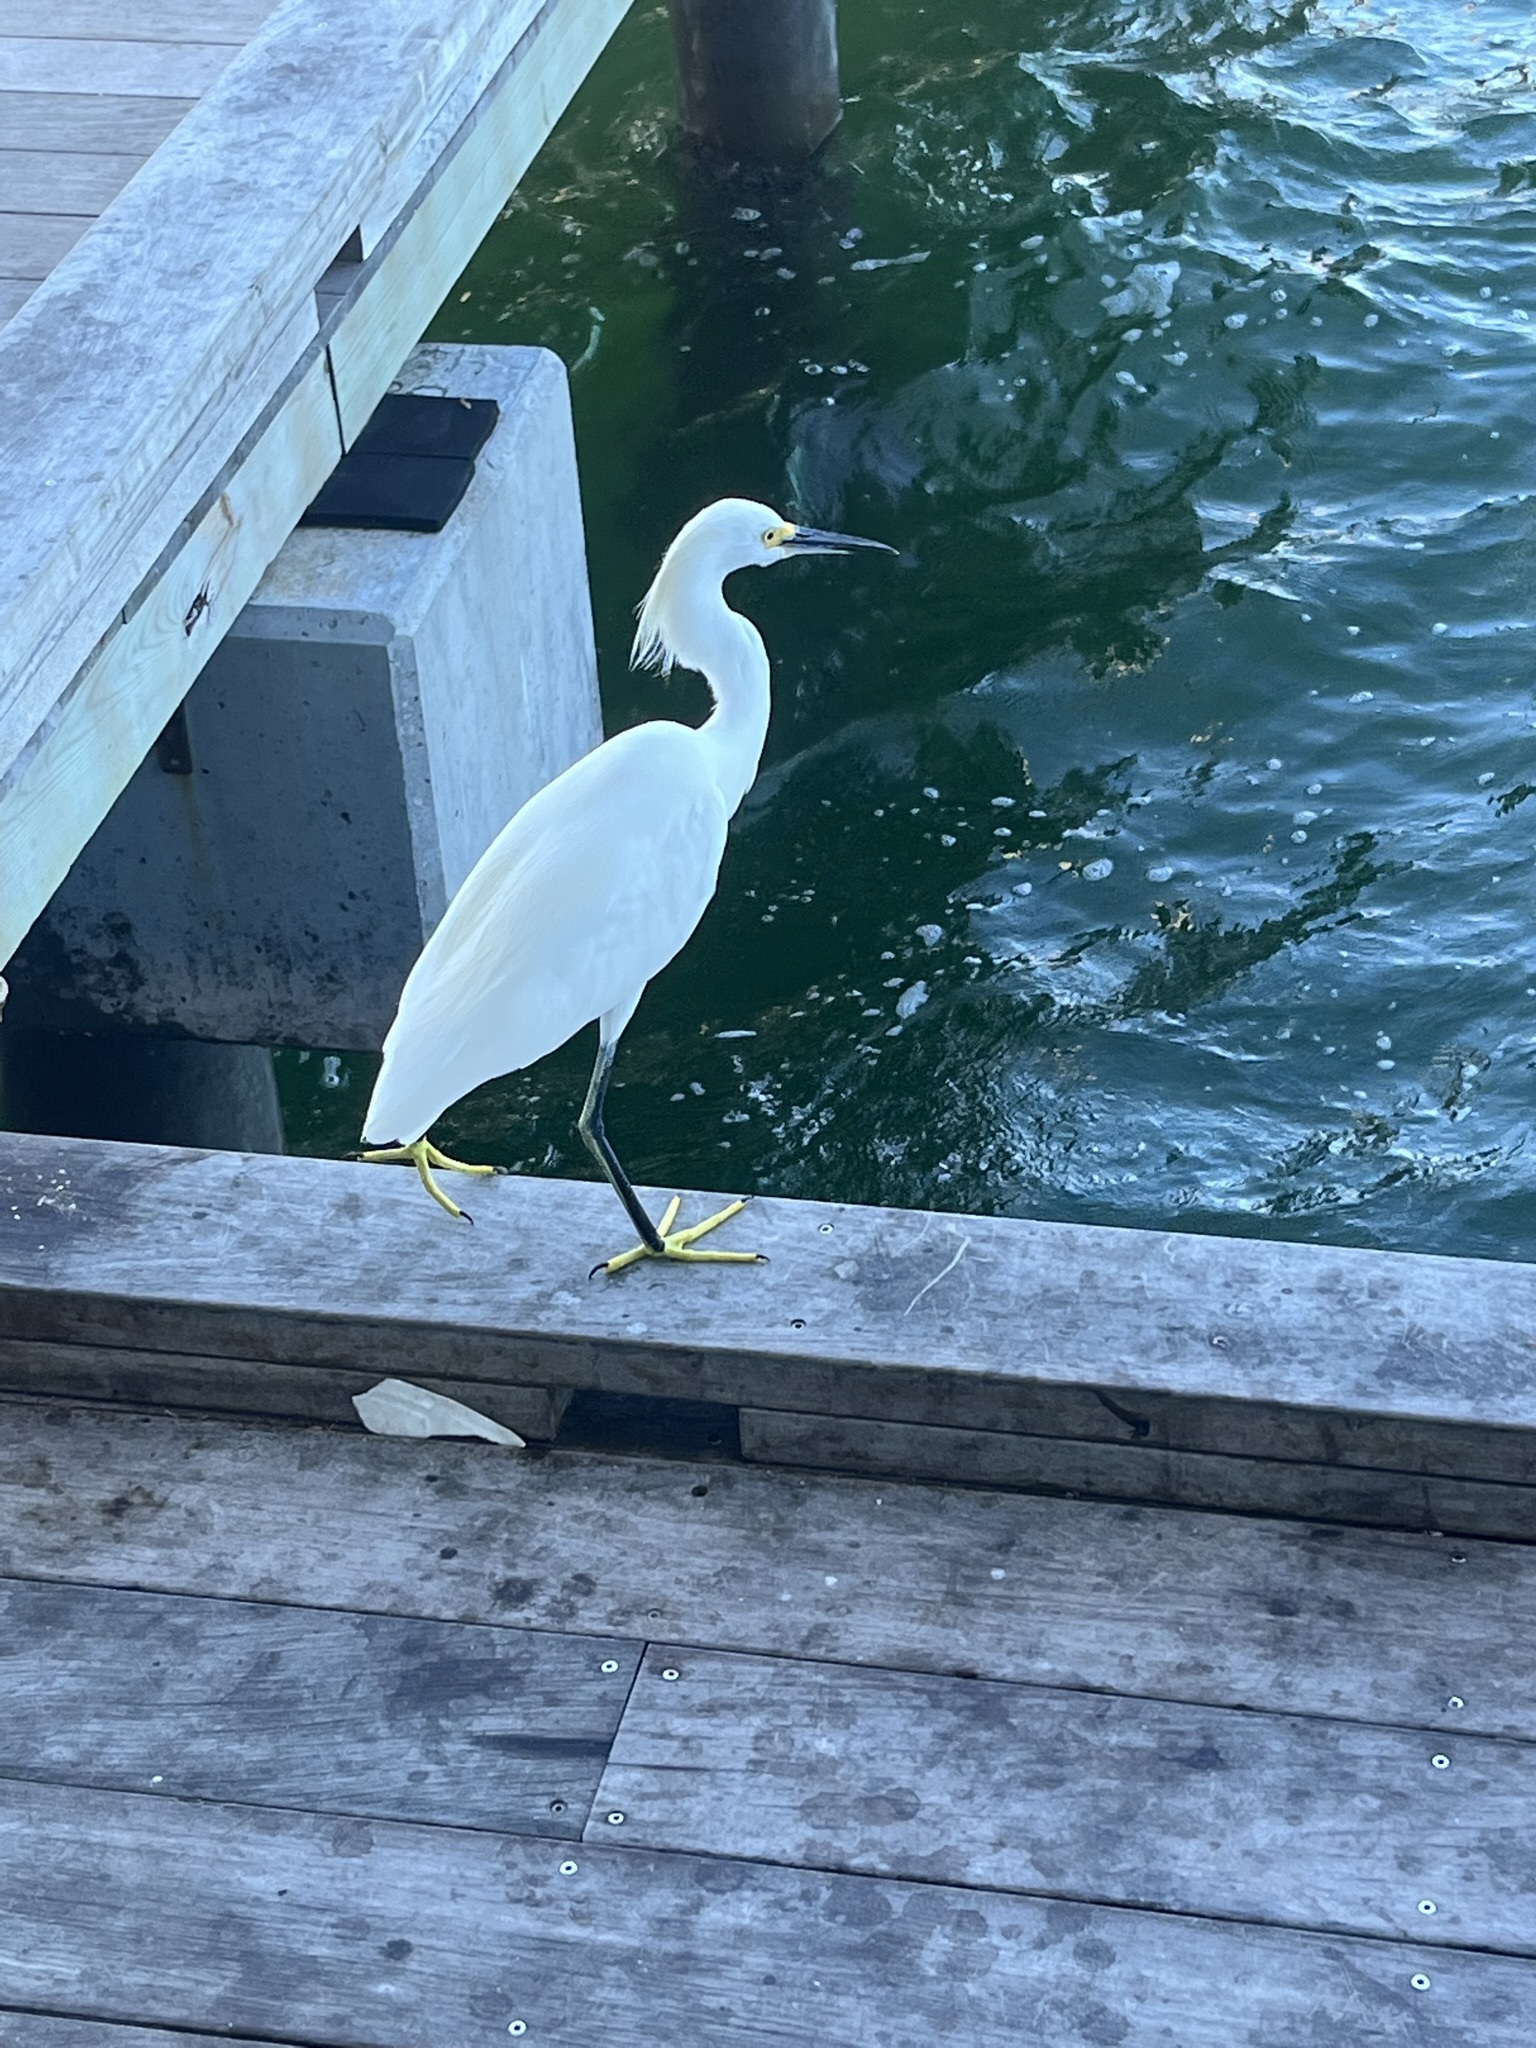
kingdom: Animalia
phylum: Chordata
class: Aves
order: Pelecaniformes
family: Ardeidae
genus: Egretta
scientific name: Egretta thula
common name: Snowy egret
